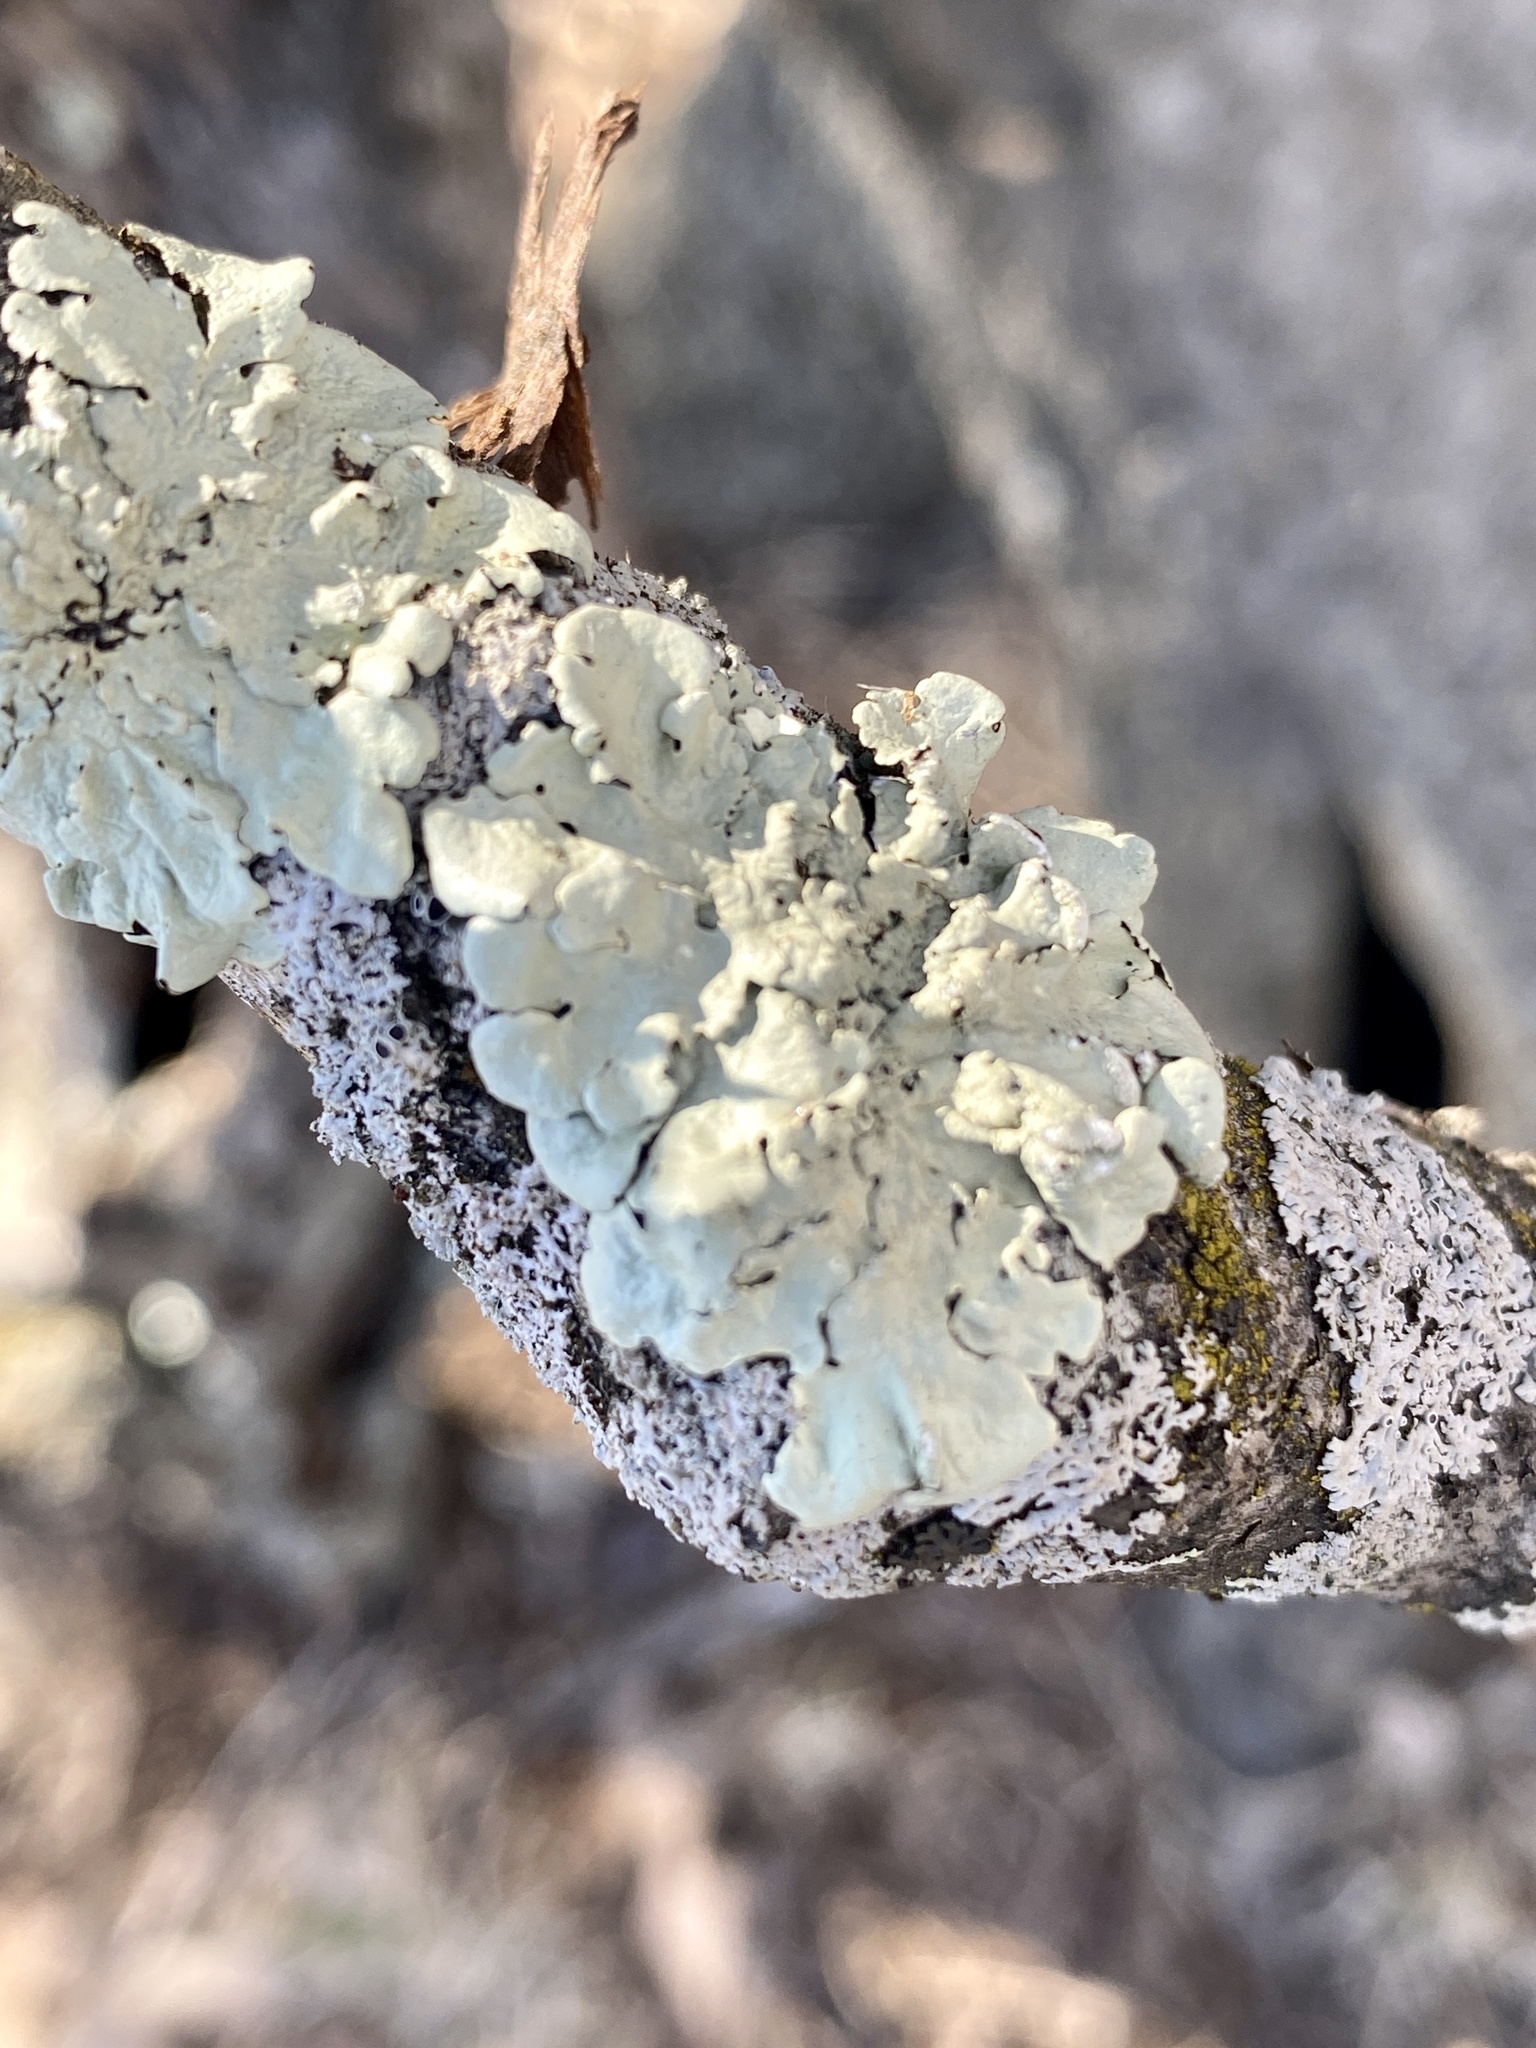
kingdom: Fungi
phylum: Ascomycota
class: Lecanoromycetes
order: Lecanorales
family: Parmeliaceae
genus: Flavoparmelia
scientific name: Flavoparmelia caperata
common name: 40-mile per hour lichen
